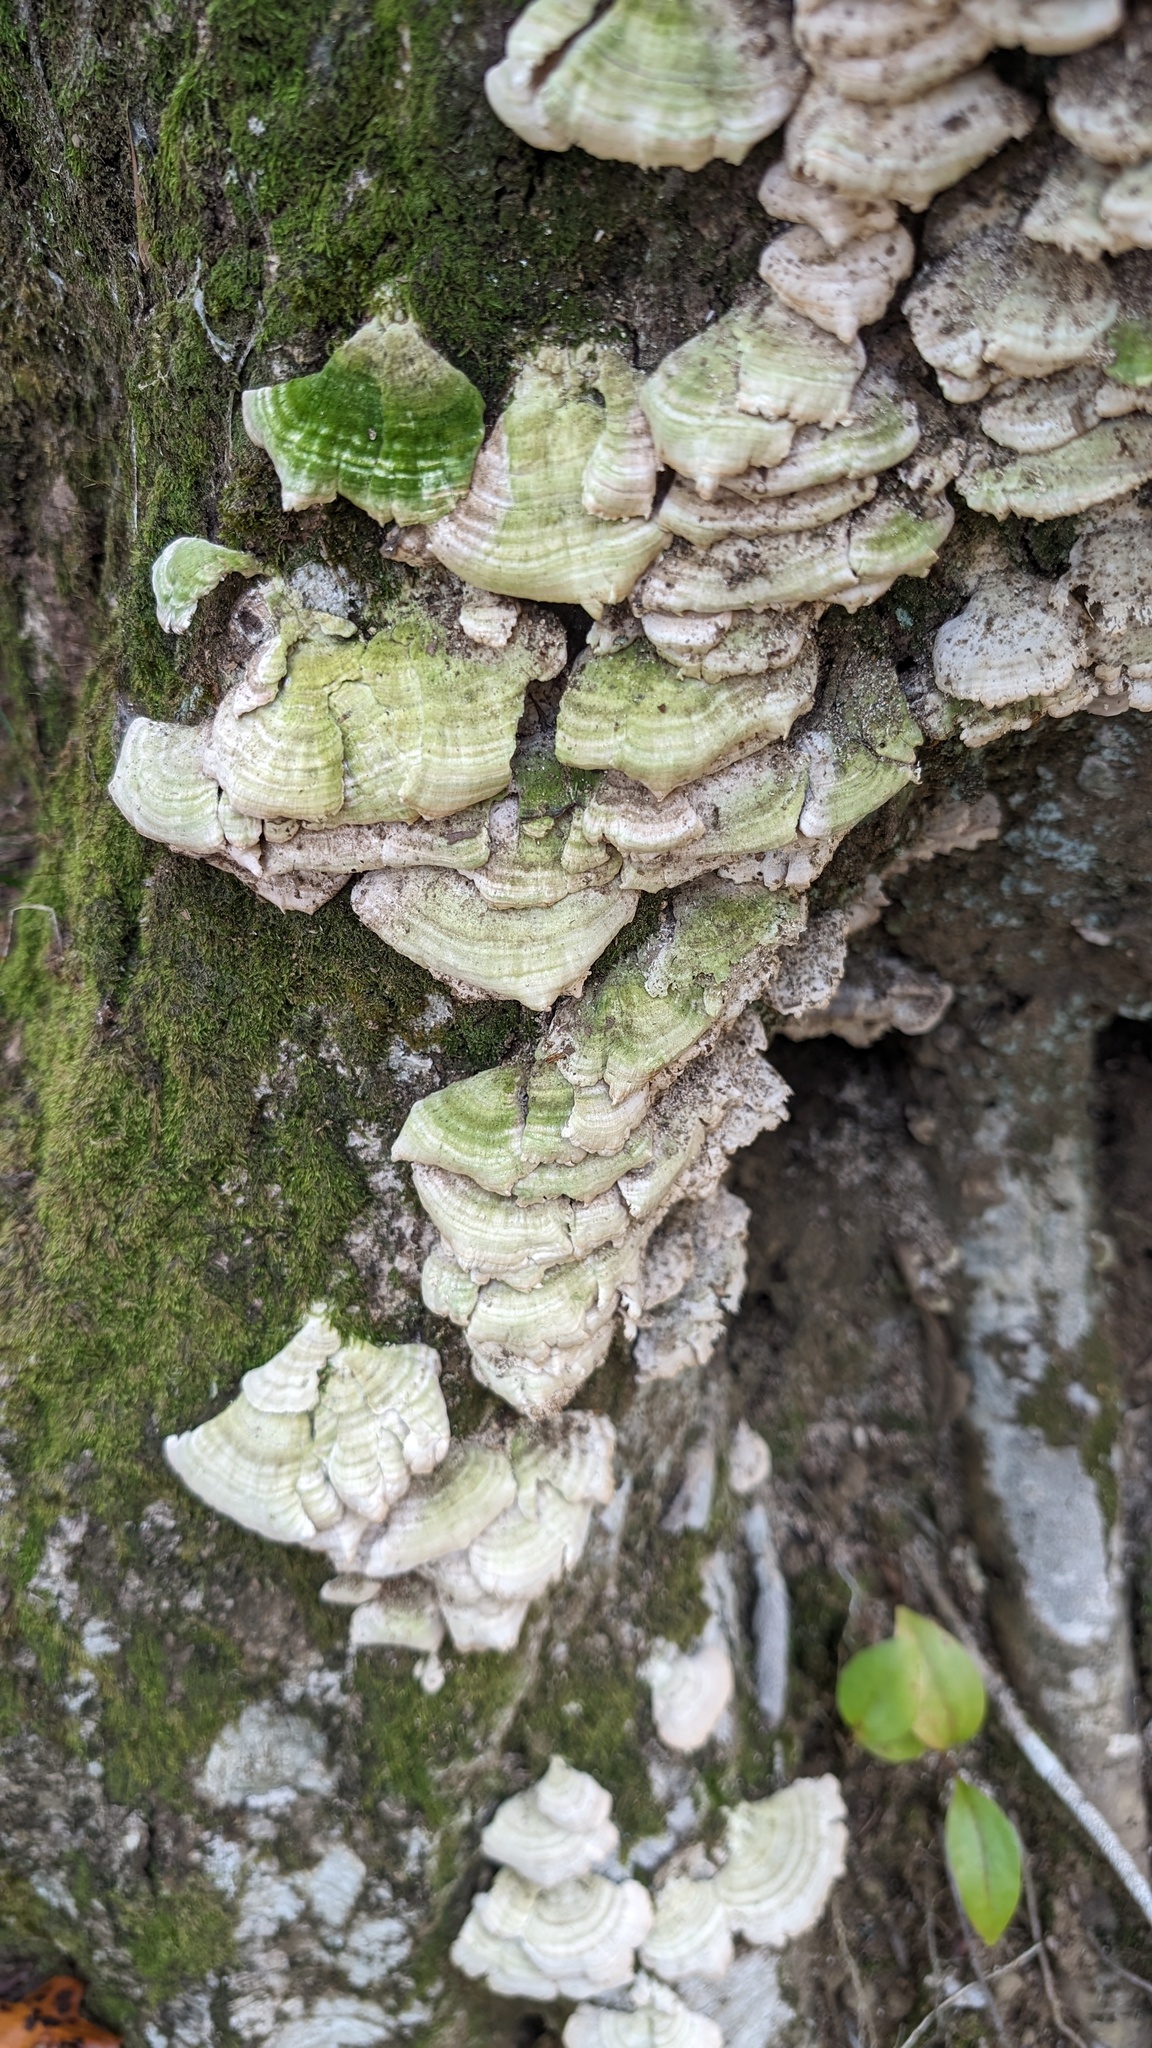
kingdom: Fungi
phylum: Basidiomycota
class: Agaricomycetes
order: Hymenochaetales
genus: Trichaptum
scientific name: Trichaptum biforme
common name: Violet-toothed polypore
